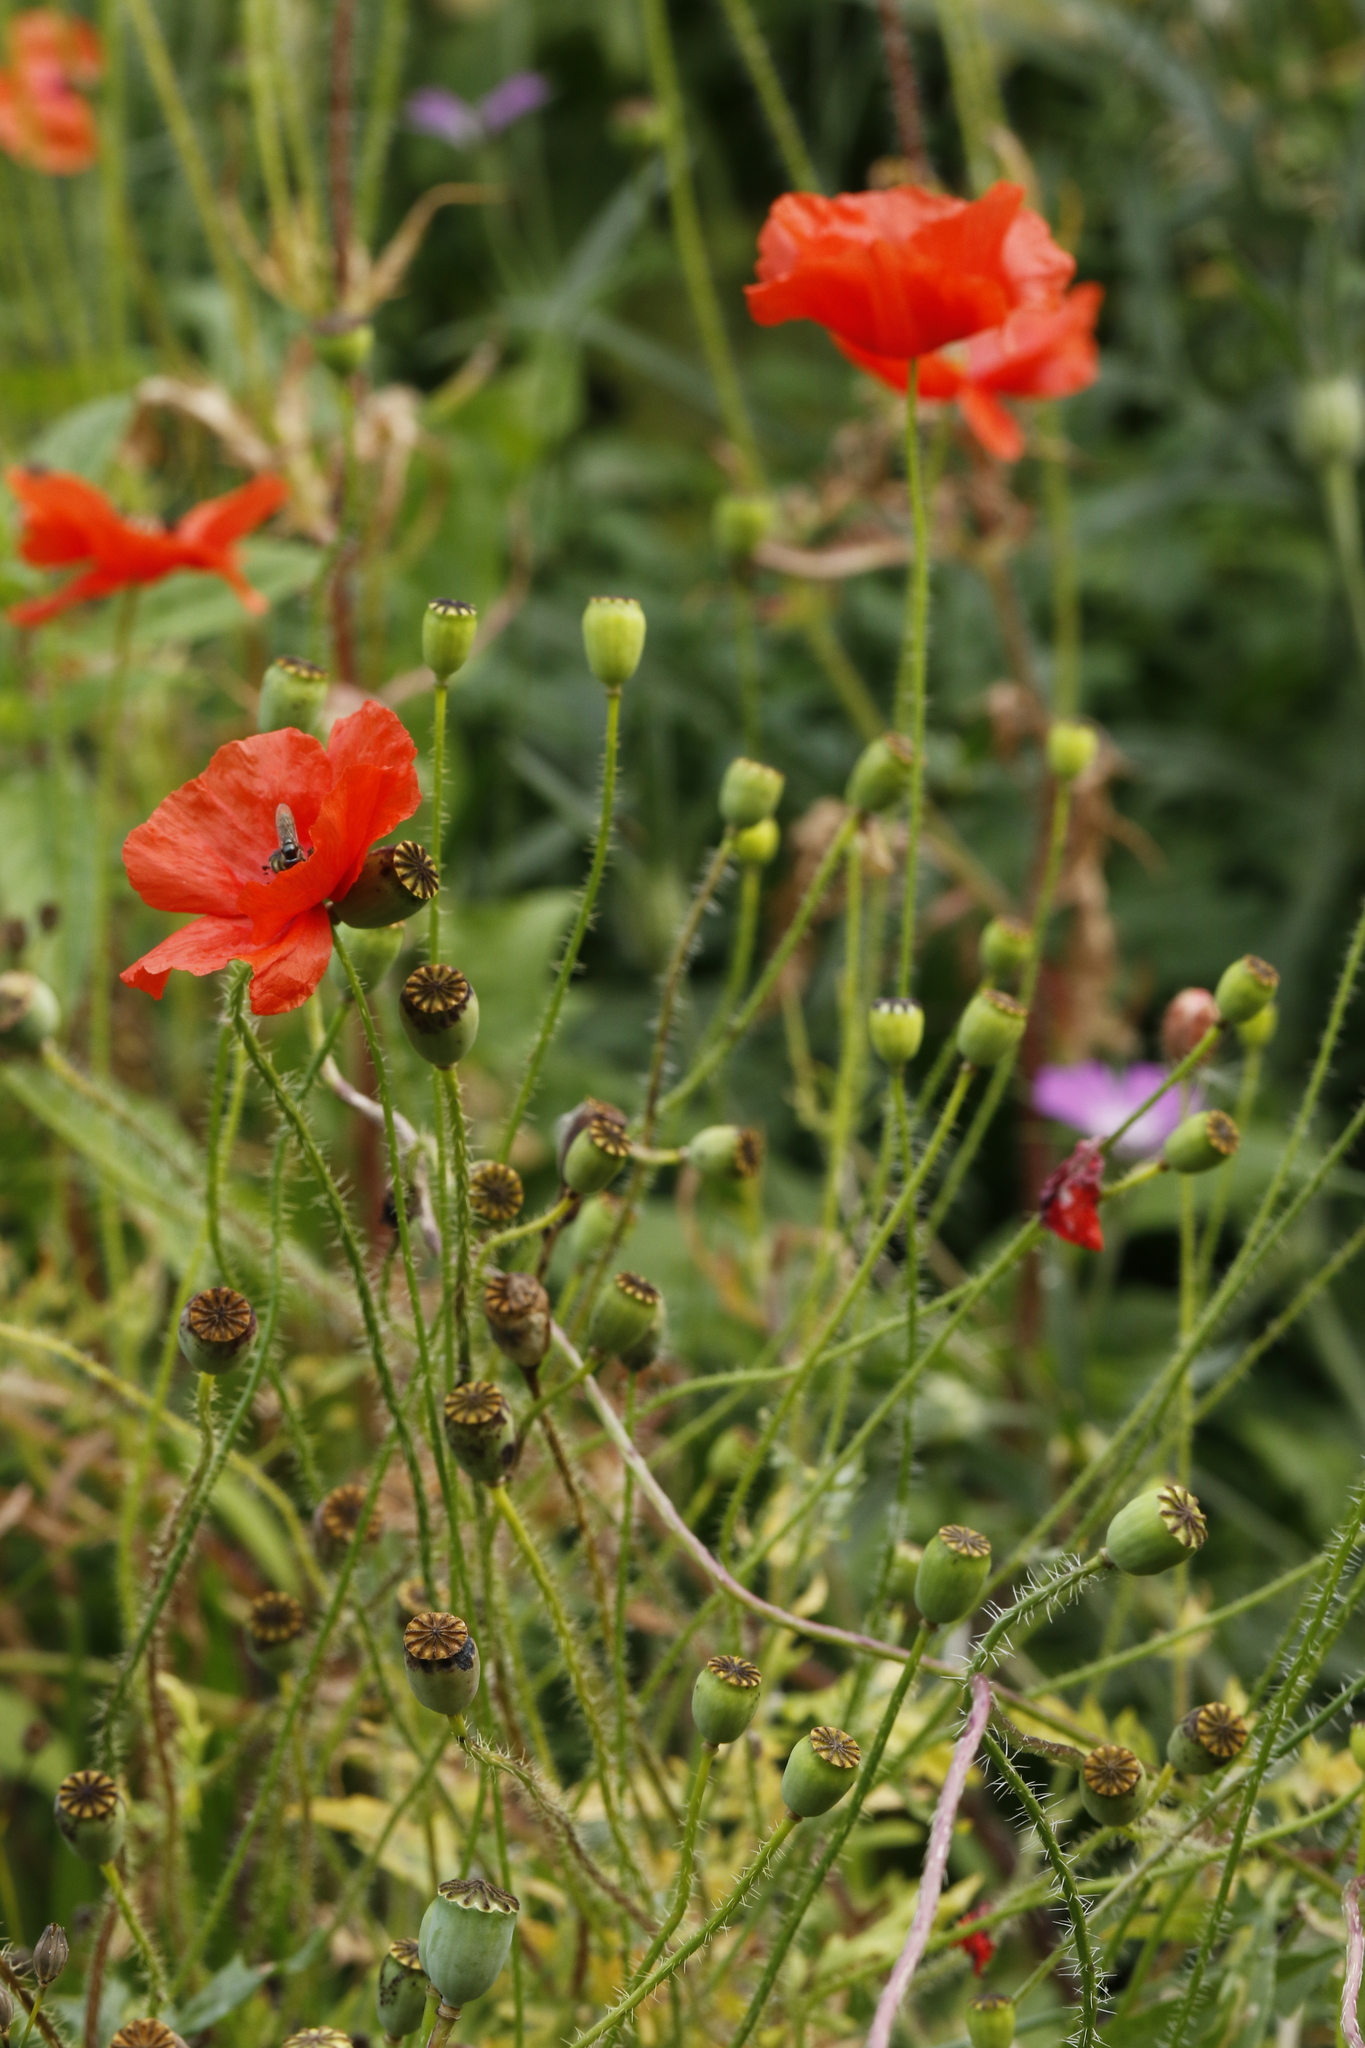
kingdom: Plantae
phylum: Tracheophyta
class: Magnoliopsida
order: Ranunculales
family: Papaveraceae
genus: Papaver
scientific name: Papaver rhoeas
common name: Corn poppy
